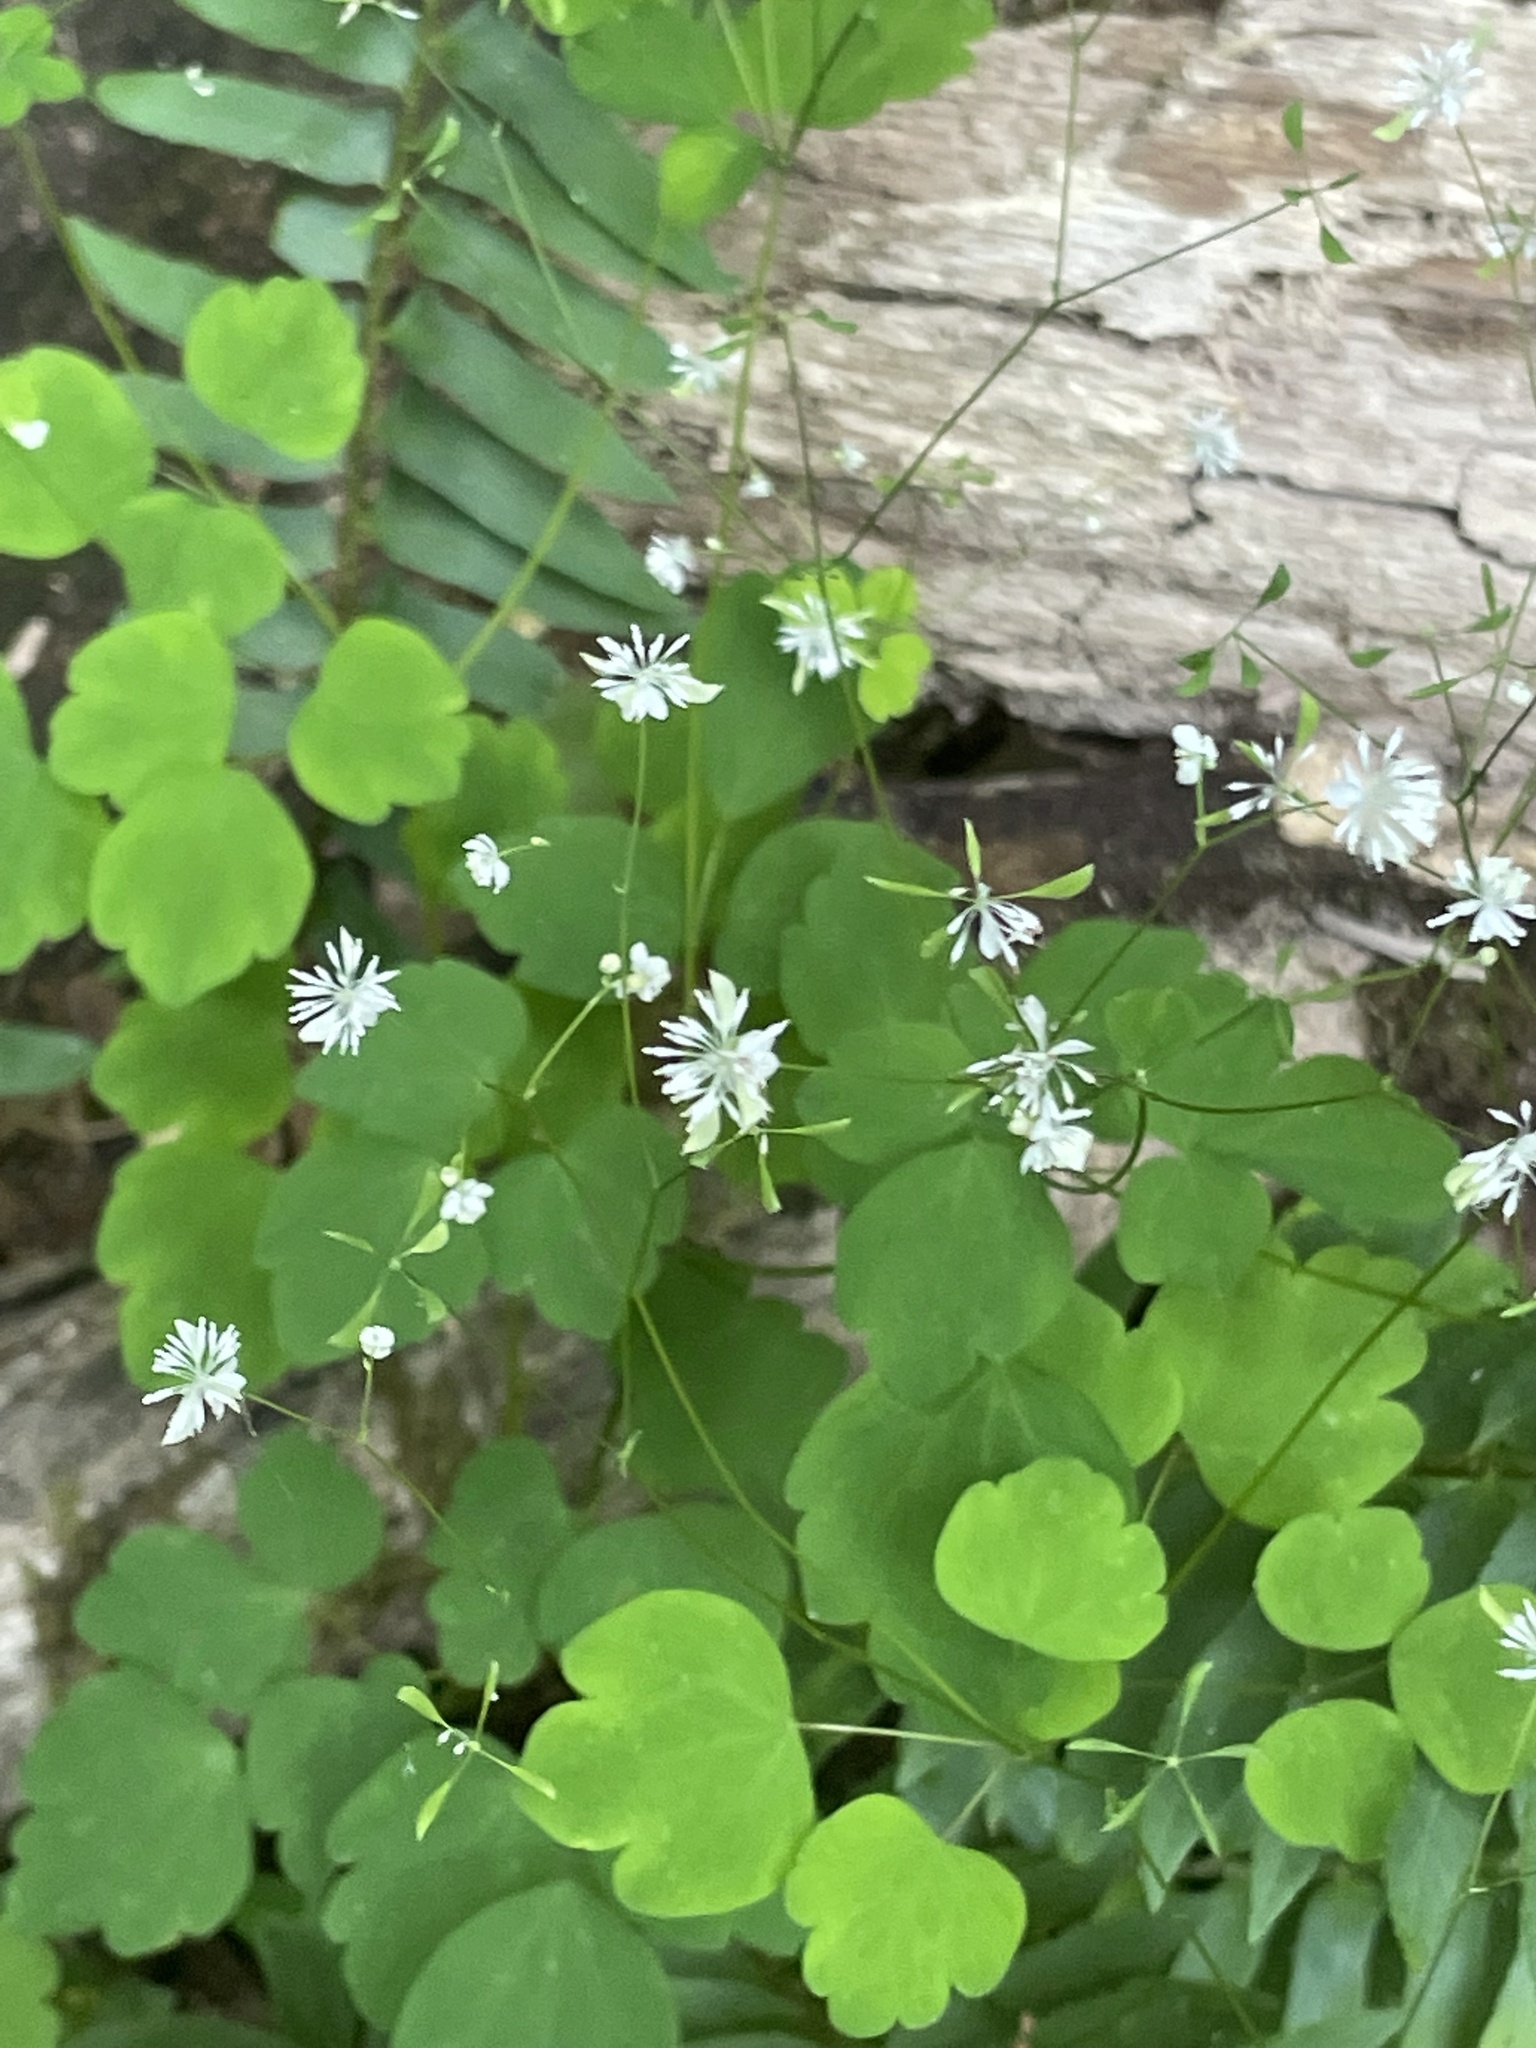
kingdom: Plantae
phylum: Tracheophyta
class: Magnoliopsida
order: Ranunculales
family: Ranunculaceae
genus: Thalictrum
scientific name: Thalictrum clavatum
